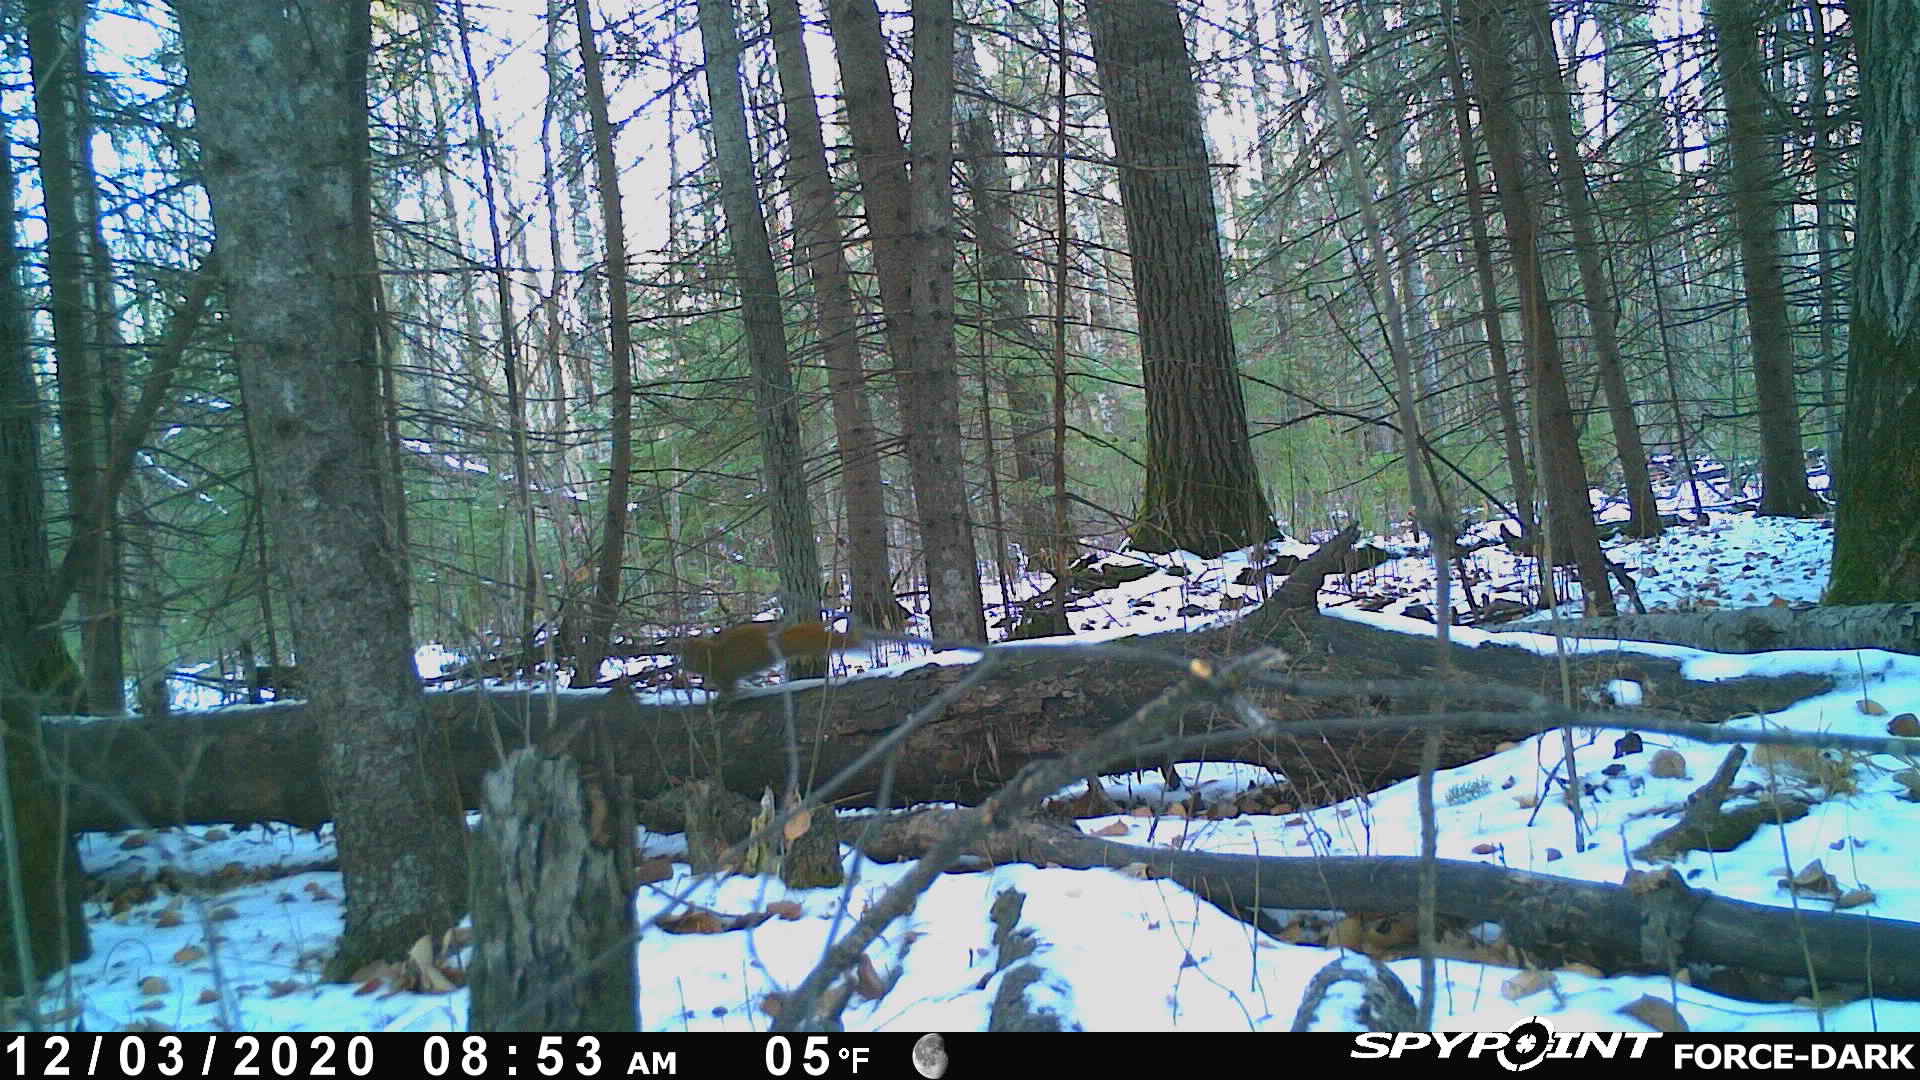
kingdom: Animalia
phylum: Chordata
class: Mammalia
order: Rodentia
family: Sciuridae
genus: Tamiasciurus
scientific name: Tamiasciurus hudsonicus
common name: Red squirrel
